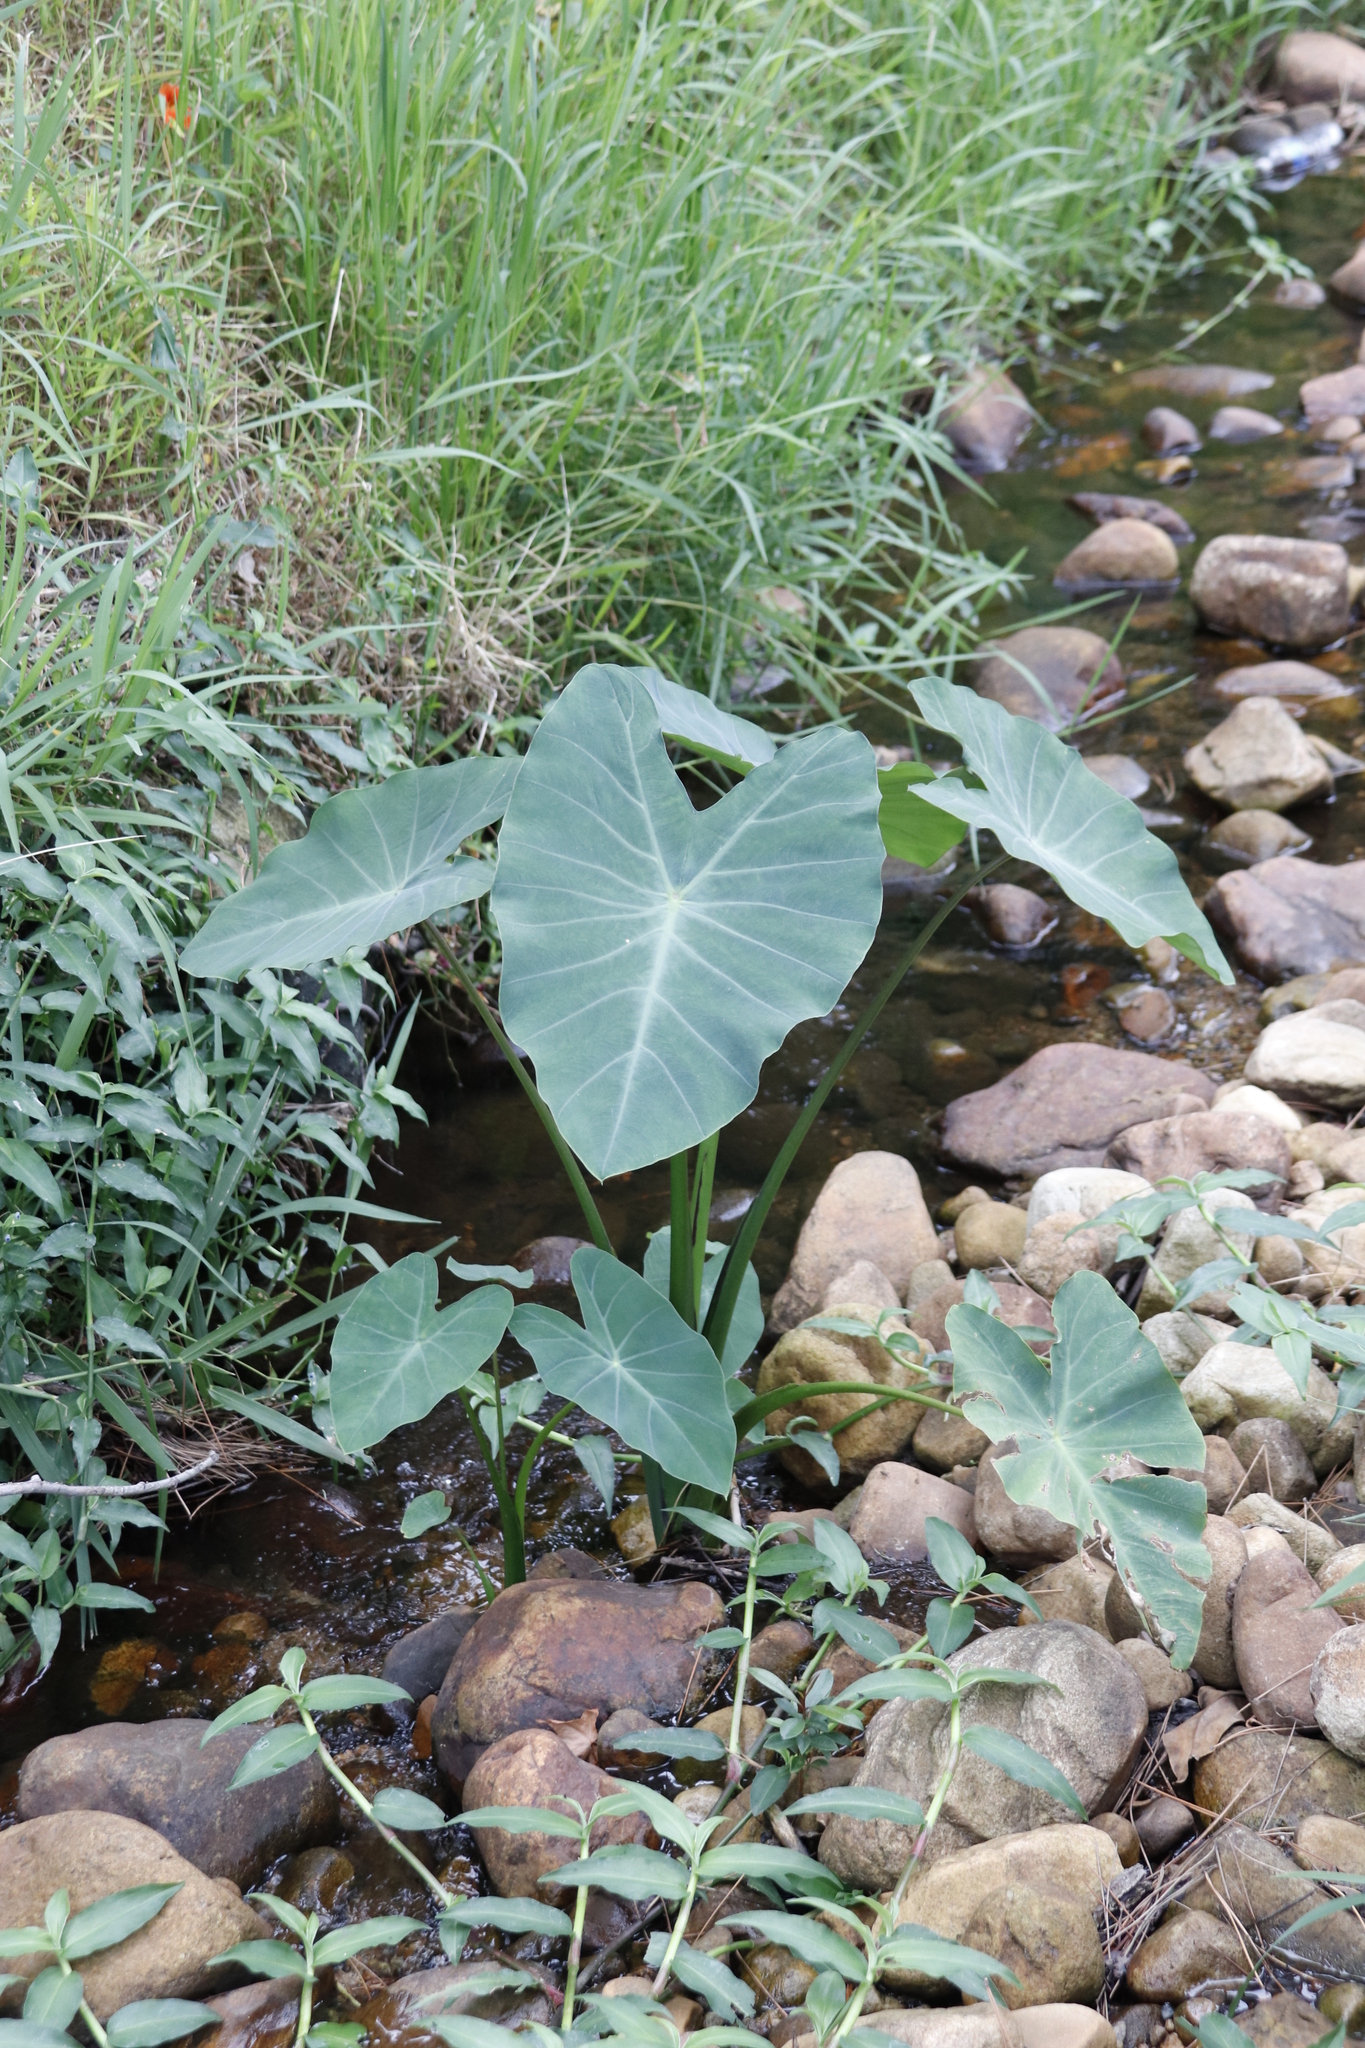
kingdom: Plantae
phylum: Tracheophyta
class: Liliopsida
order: Alismatales
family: Araceae
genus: Colocasia
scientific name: Colocasia esculenta
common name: Taro
